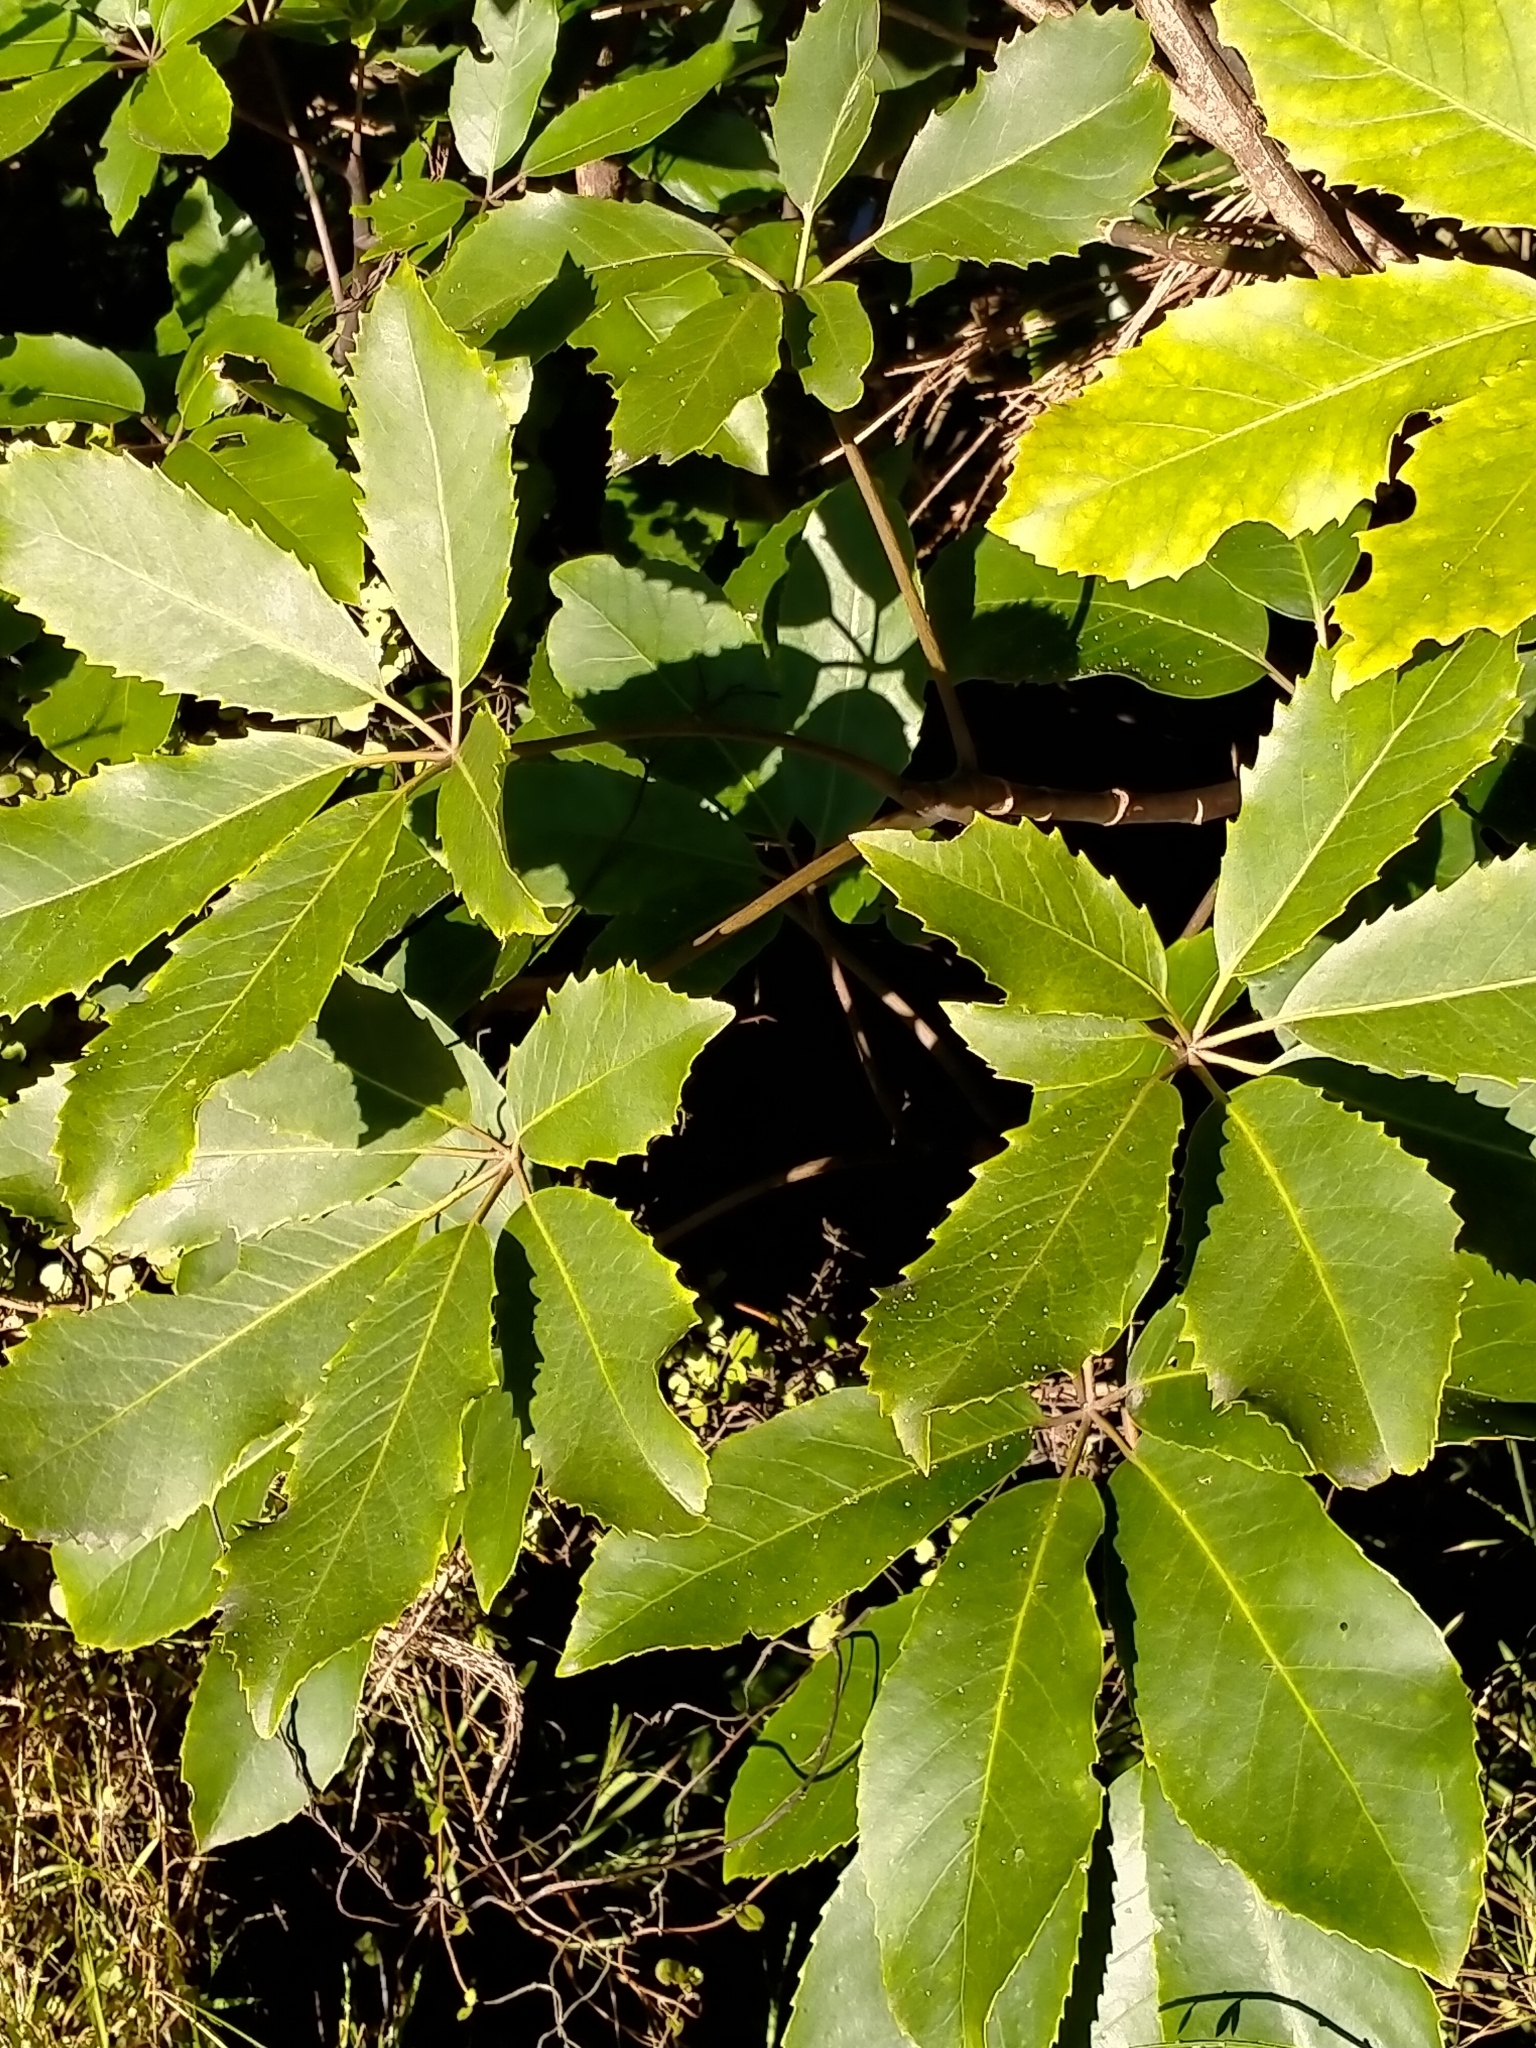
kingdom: Plantae
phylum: Tracheophyta
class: Magnoliopsida
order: Apiales
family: Araliaceae
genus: Neopanax
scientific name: Neopanax arboreus
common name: Five-fingers
